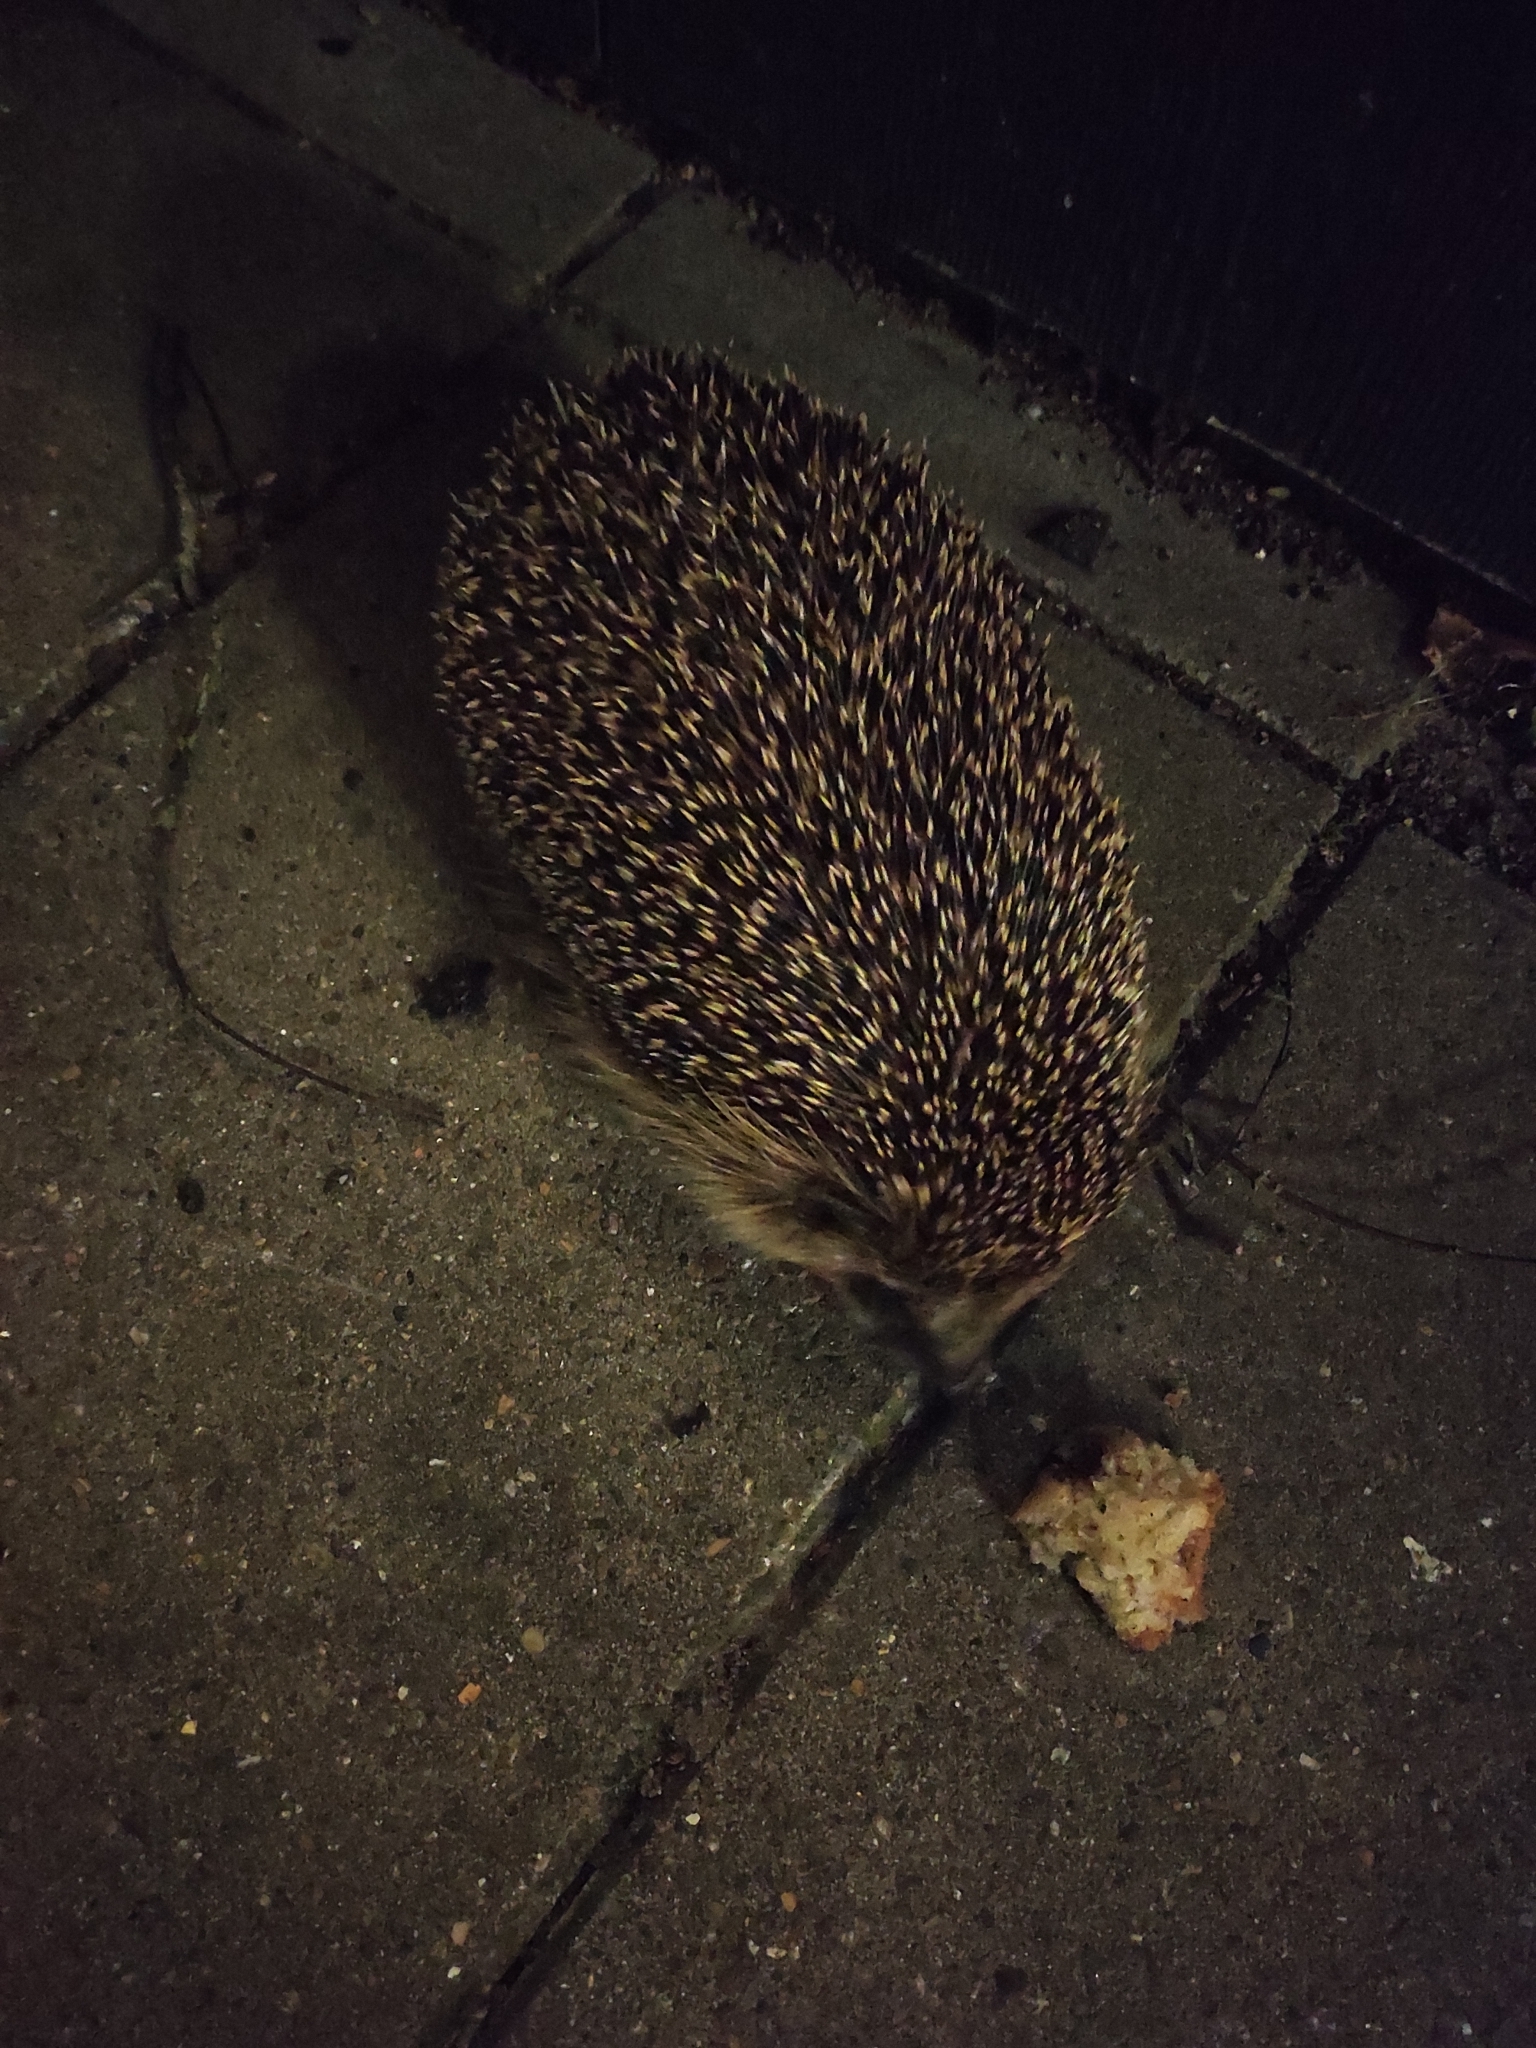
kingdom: Animalia
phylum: Chordata
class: Mammalia
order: Erinaceomorpha
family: Erinaceidae
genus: Erinaceus
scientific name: Erinaceus europaeus
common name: West european hedgehog
